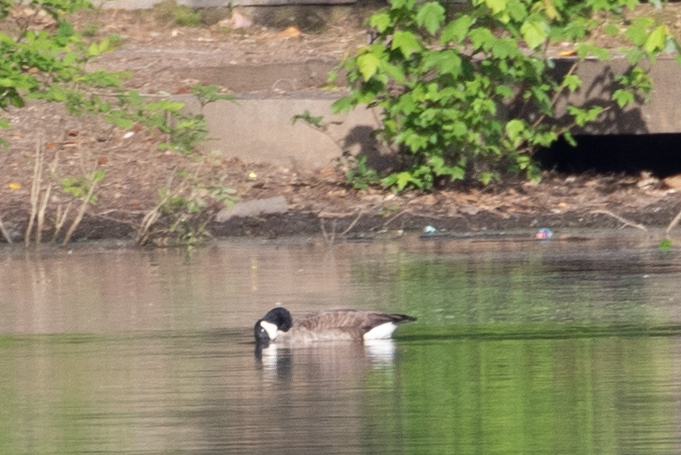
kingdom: Animalia
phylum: Chordata
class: Aves
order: Anseriformes
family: Anatidae
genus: Branta
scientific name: Branta canadensis
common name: Canada goose
